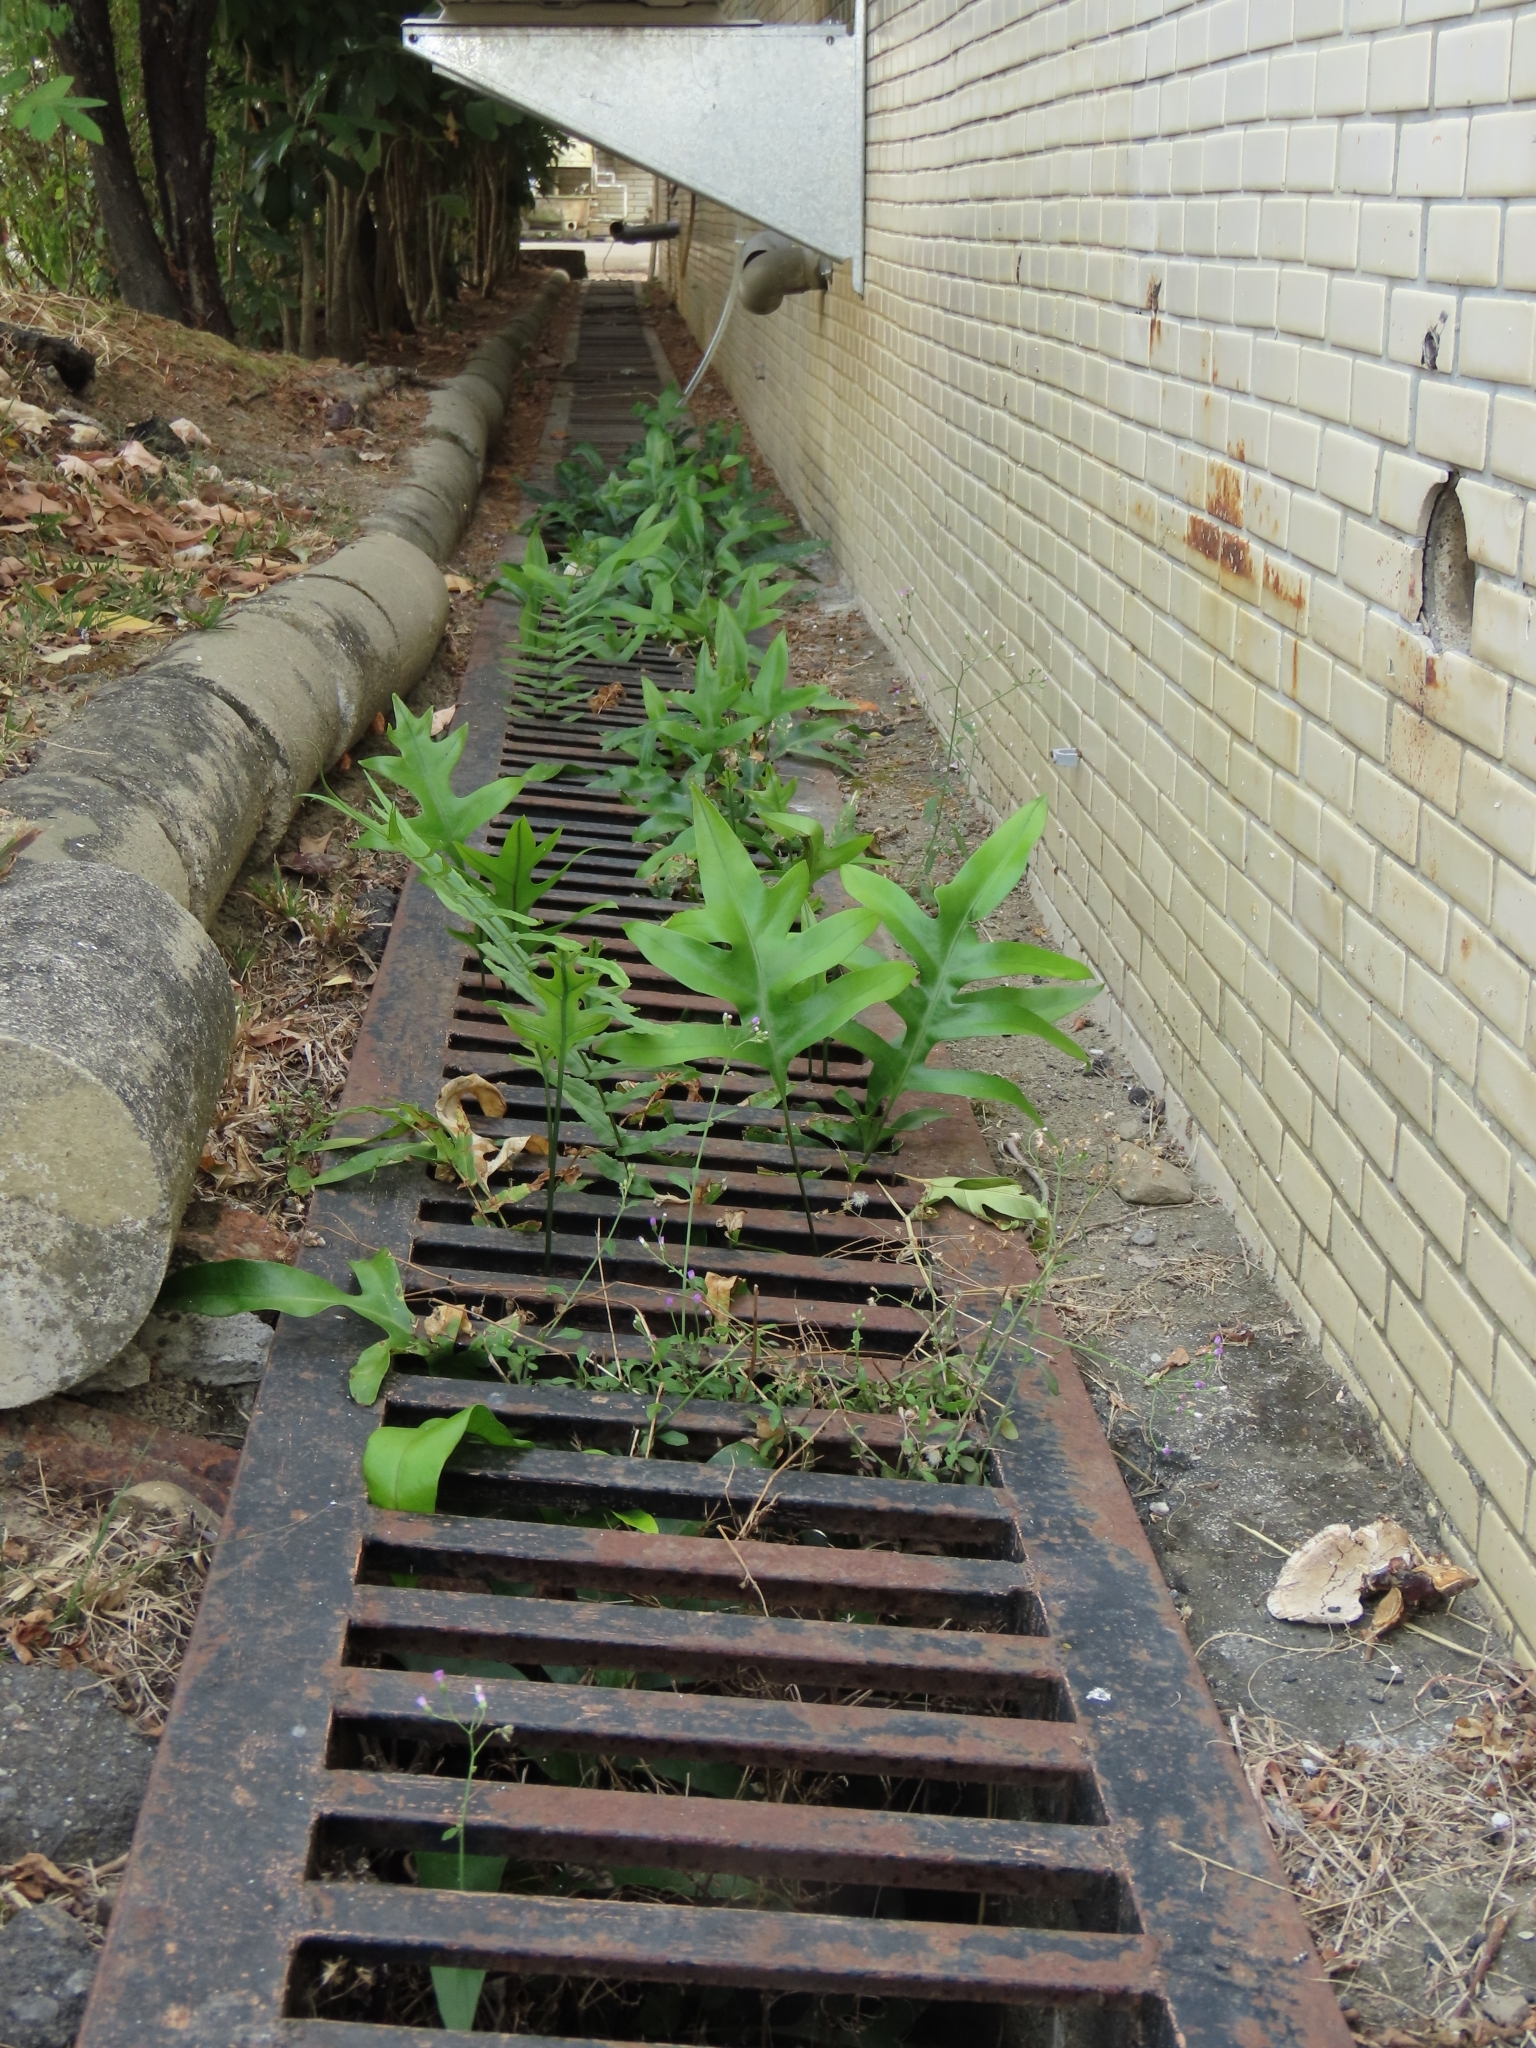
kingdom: Plantae
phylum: Tracheophyta
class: Polypodiopsida
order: Polypodiales
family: Polypodiaceae
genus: Microsorum
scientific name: Microsorum scolopendria
